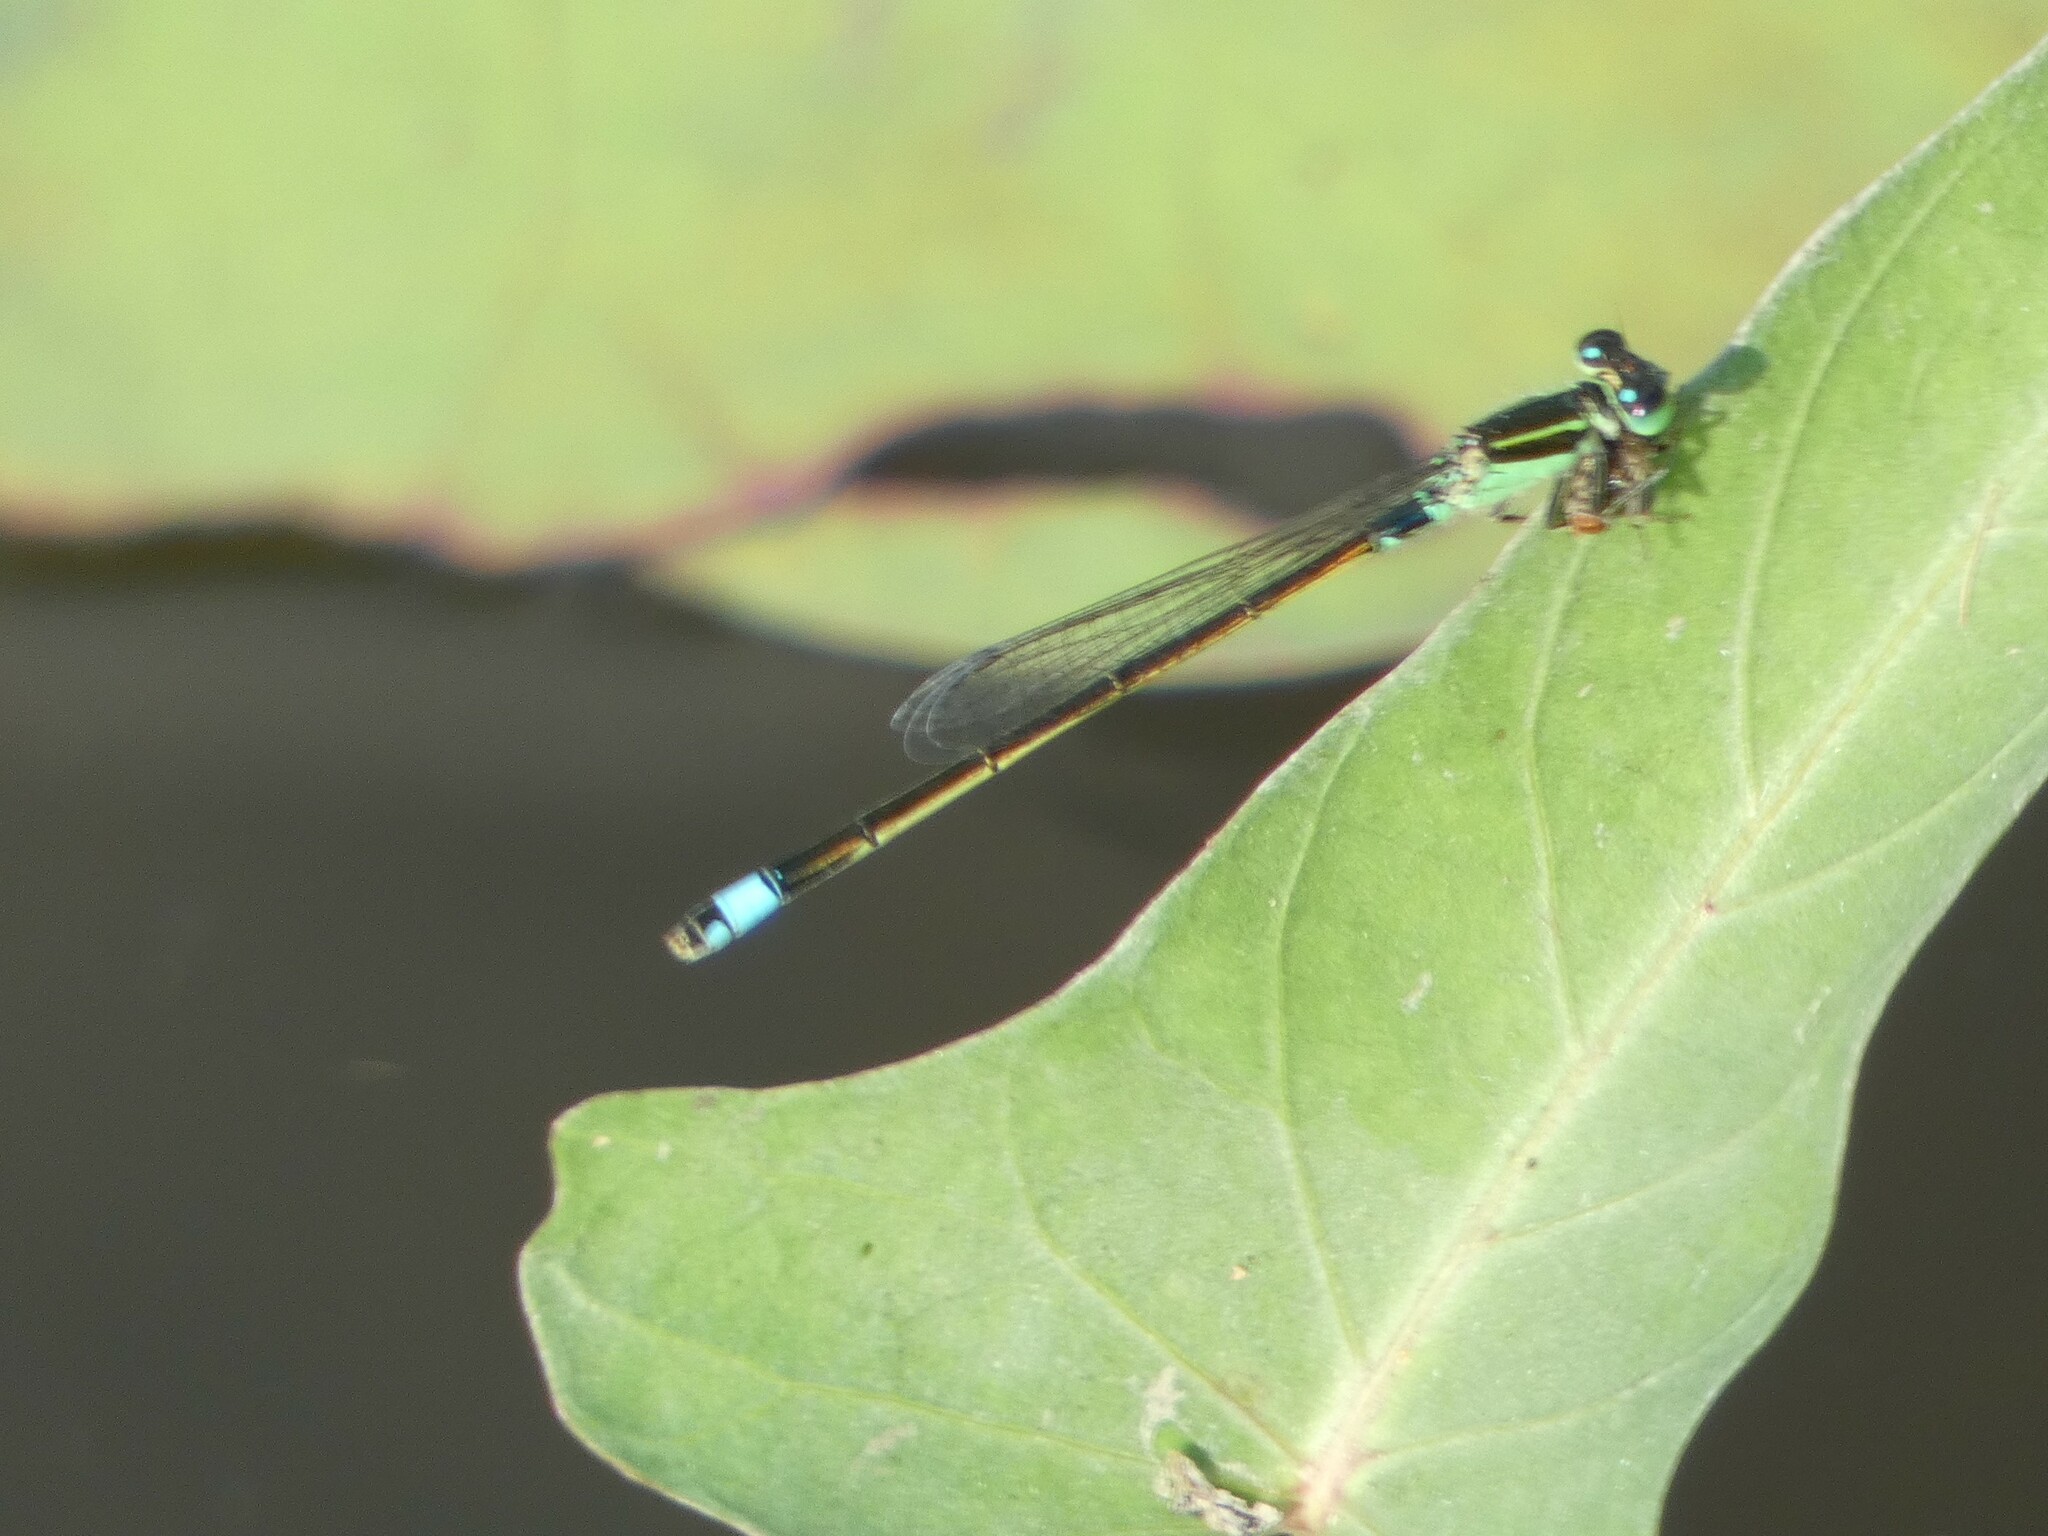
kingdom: Animalia
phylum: Arthropoda
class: Insecta
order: Odonata
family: Coenagrionidae
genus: Ischnura
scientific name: Ischnura senegalensis
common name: Tropical bluetail
